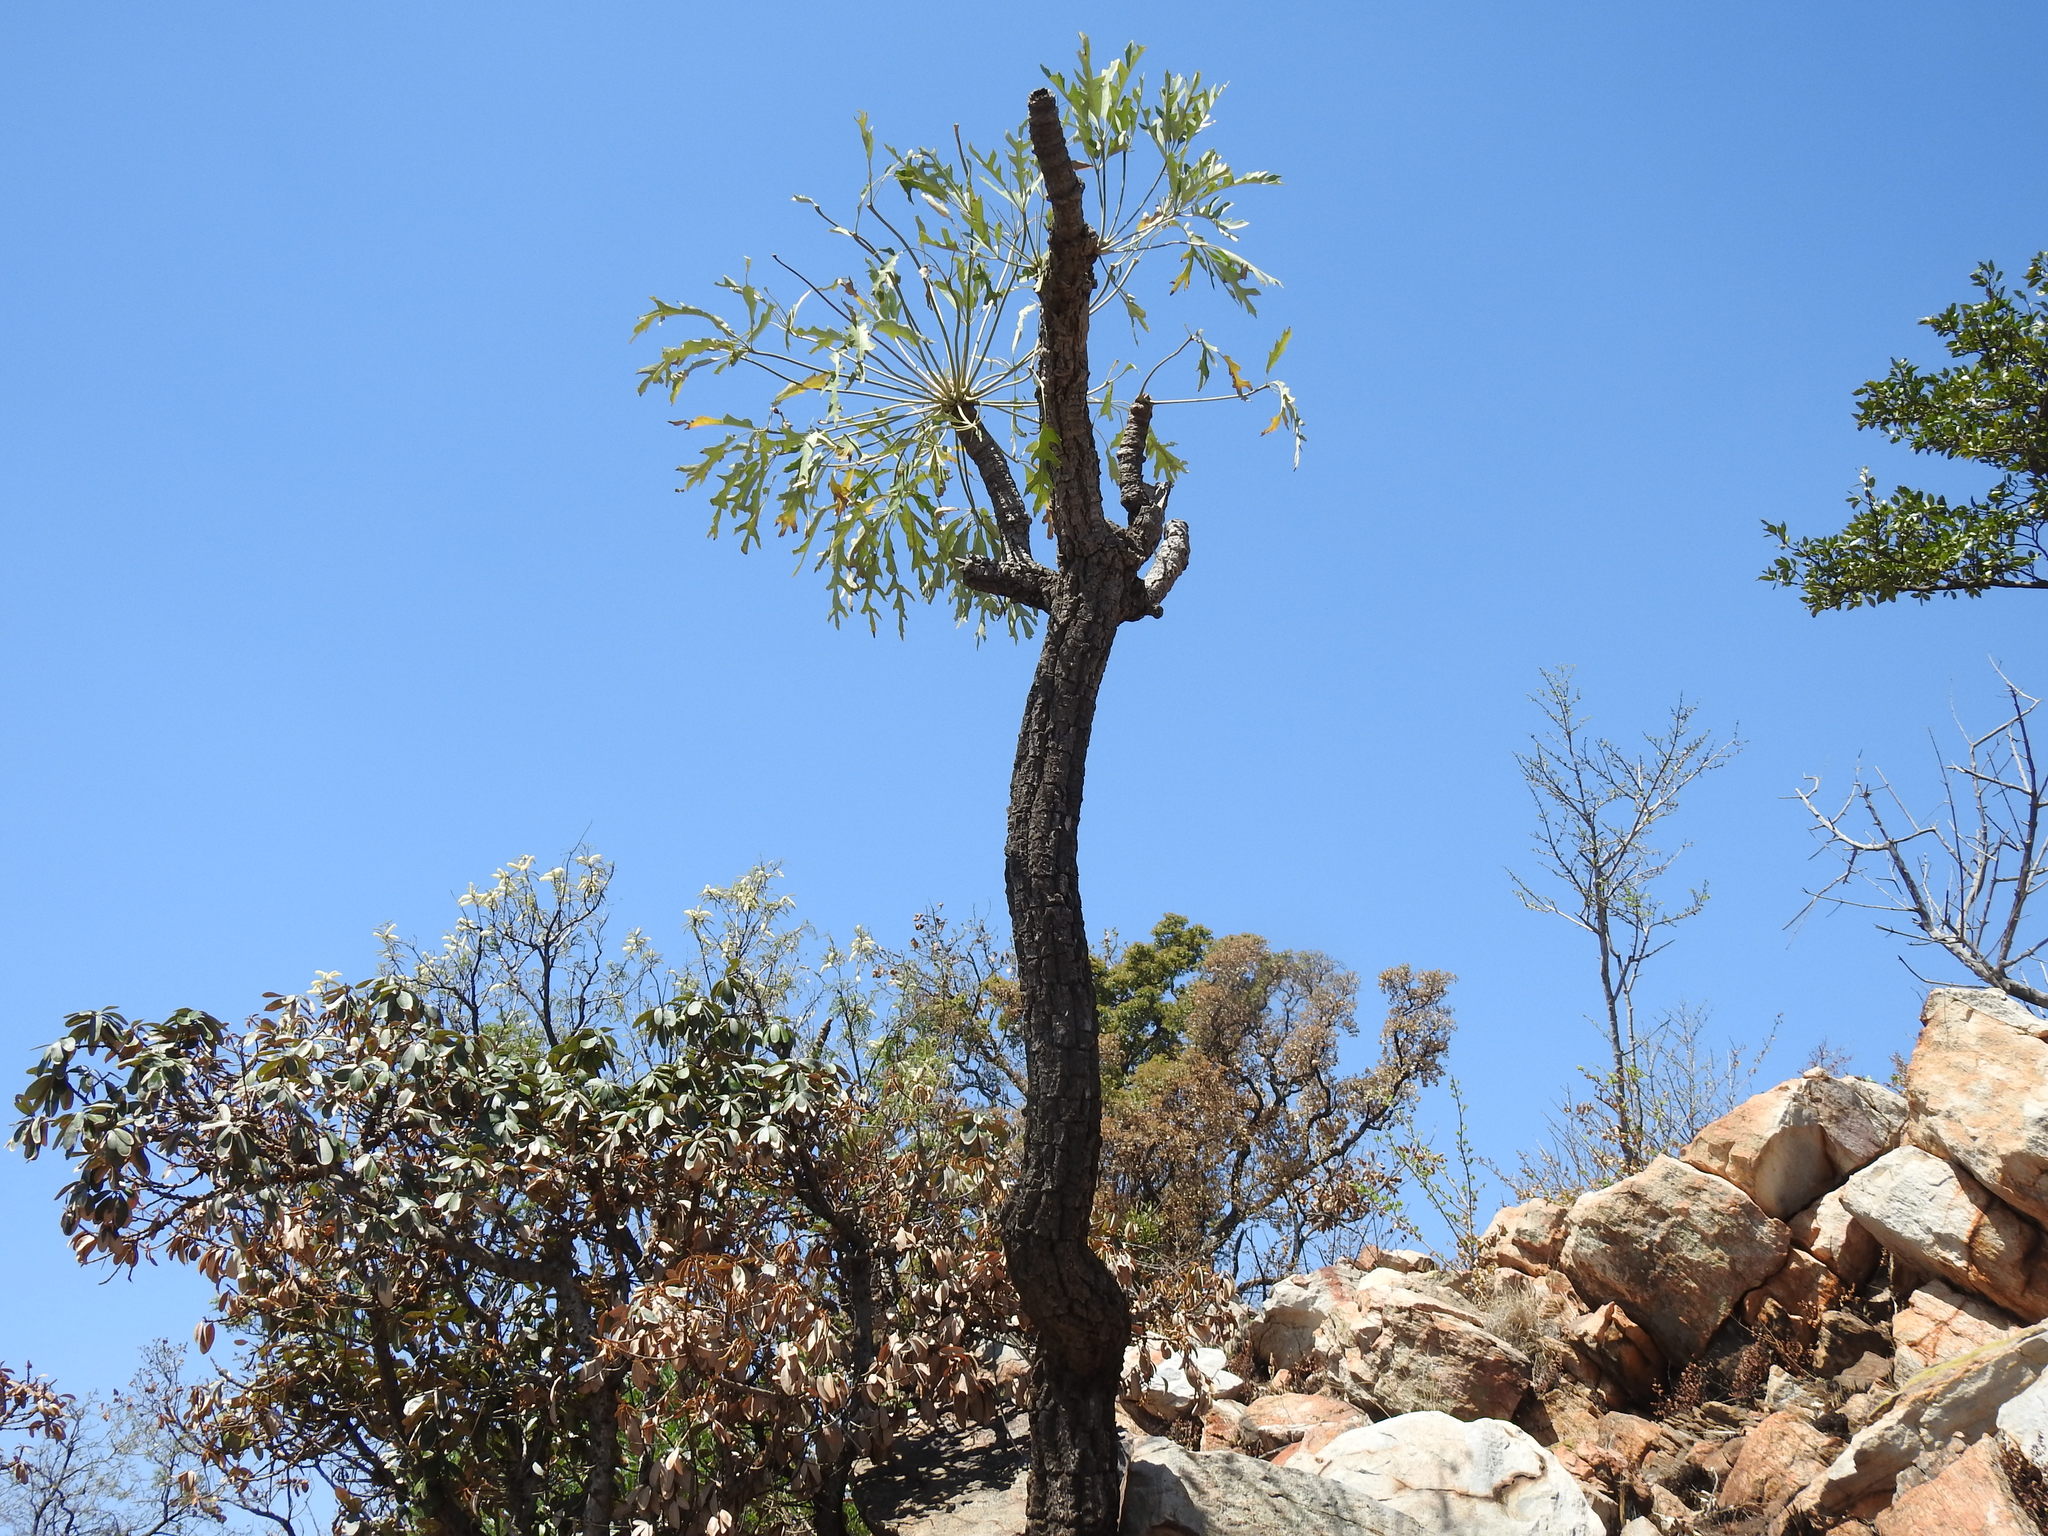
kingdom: Plantae
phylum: Tracheophyta
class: Magnoliopsida
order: Apiales
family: Araliaceae
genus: Cussonia
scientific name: Cussonia paniculata
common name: Cabbagetree
